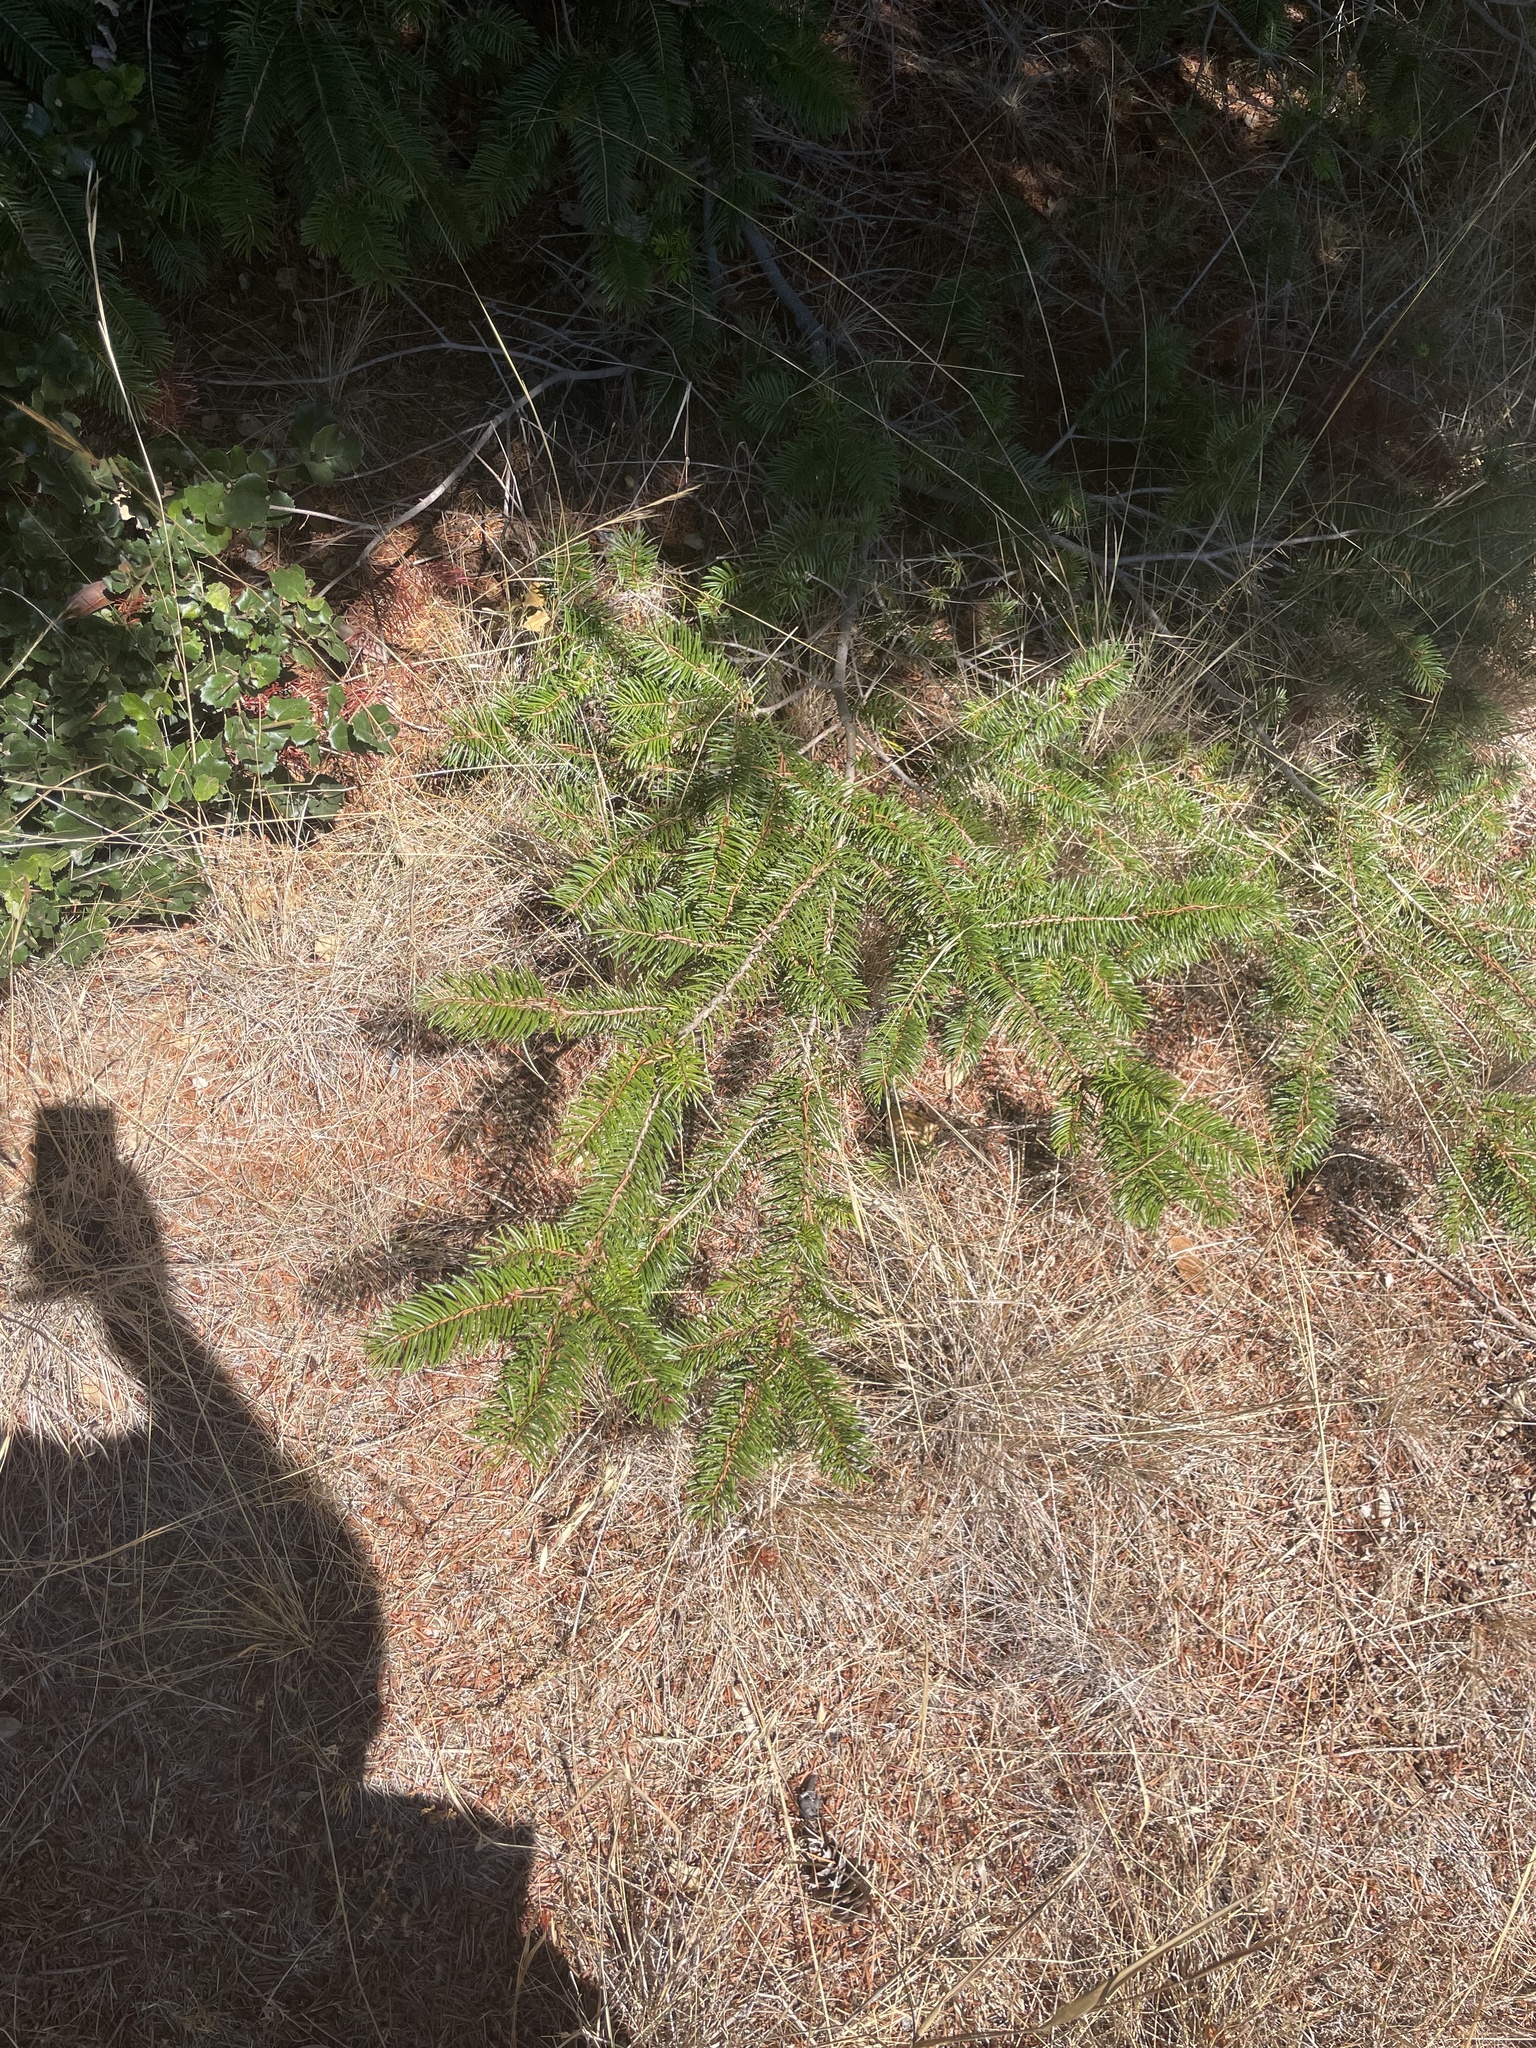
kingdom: Plantae
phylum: Tracheophyta
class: Pinopsida
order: Pinales
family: Pinaceae
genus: Pseudotsuga
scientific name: Pseudotsuga menziesii
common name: Douglas fir
